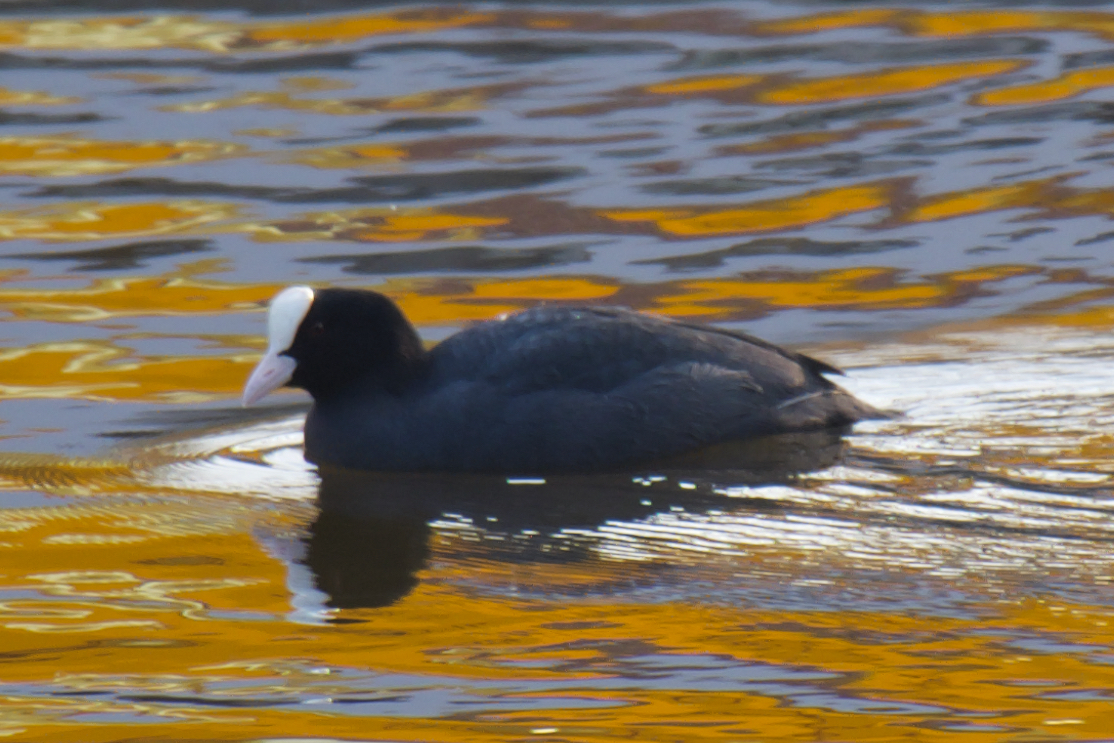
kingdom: Animalia
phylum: Chordata
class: Aves
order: Gruiformes
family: Rallidae
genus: Fulica
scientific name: Fulica atra
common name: Eurasian coot
